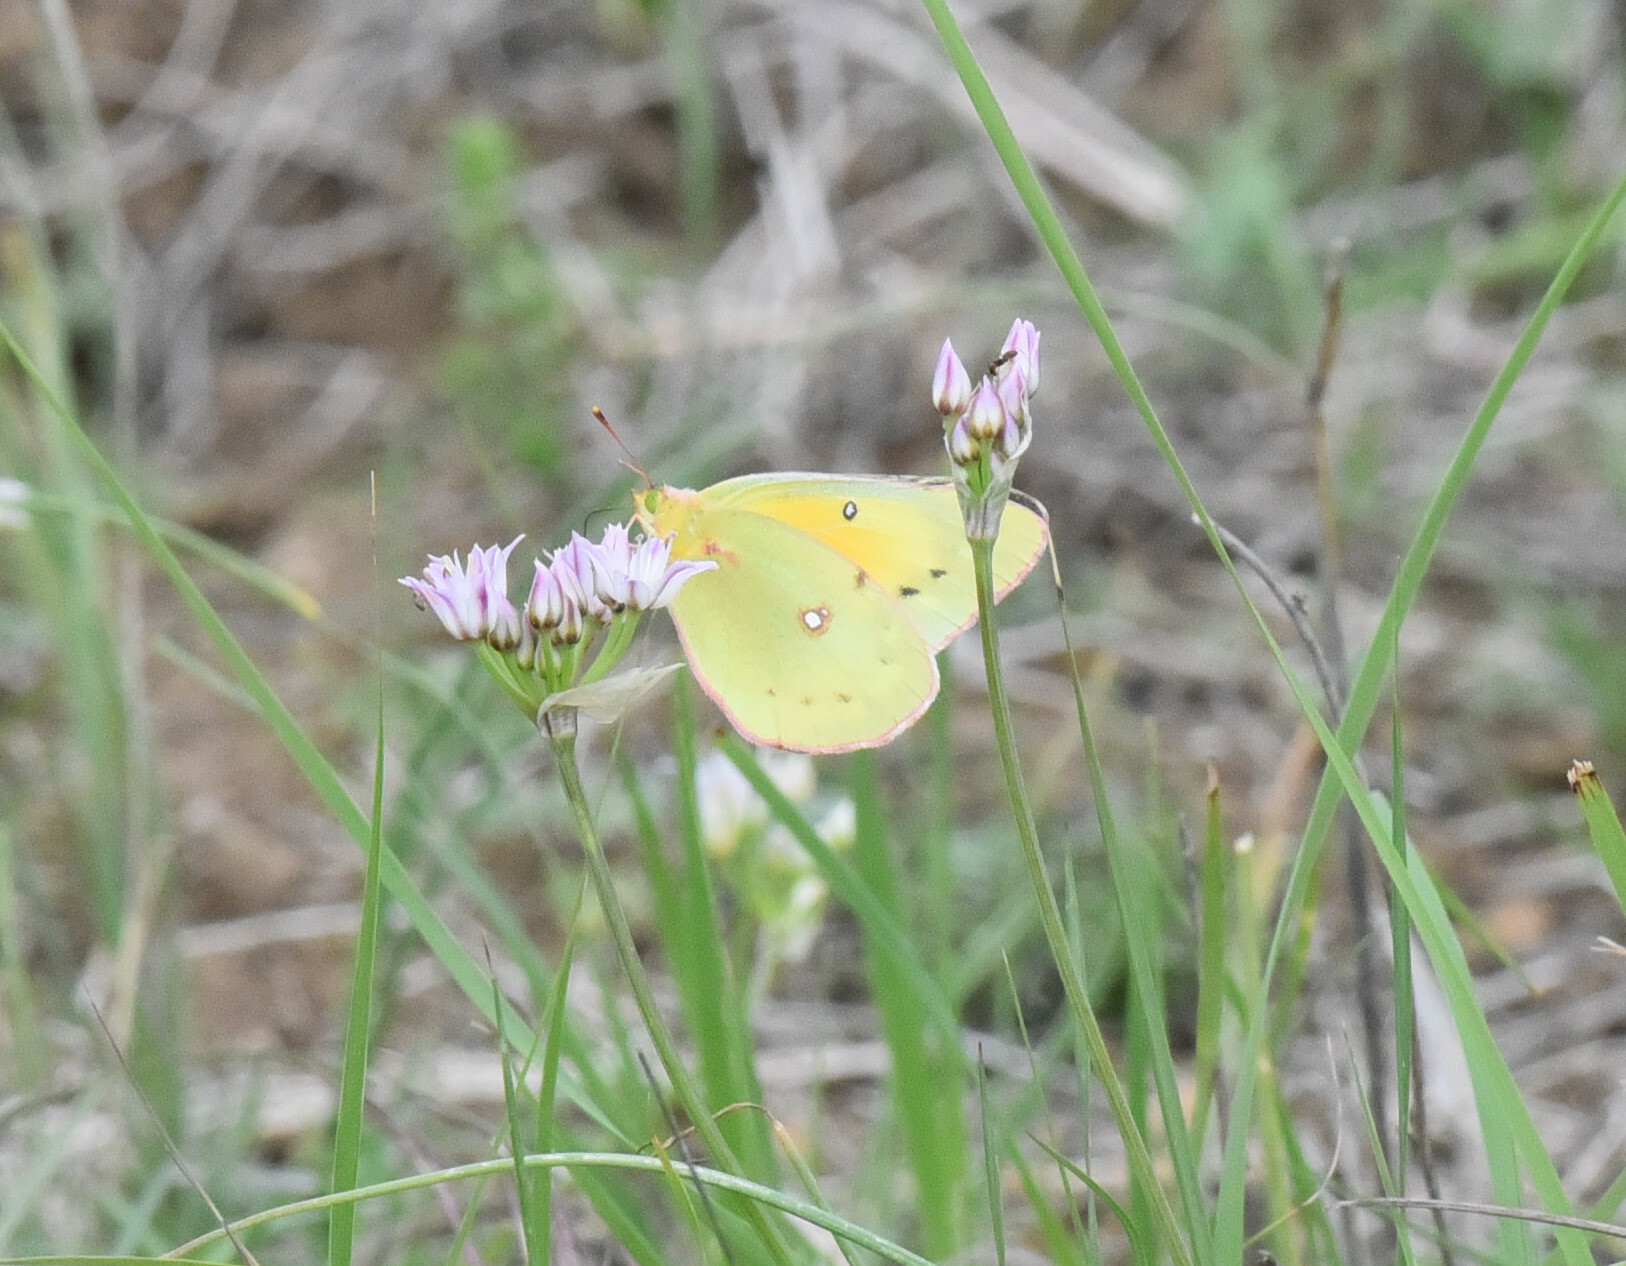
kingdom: Animalia
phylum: Arthropoda
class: Insecta
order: Lepidoptera
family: Pieridae
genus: Colias
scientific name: Colias eurytheme
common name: Alfalfa butterfly
